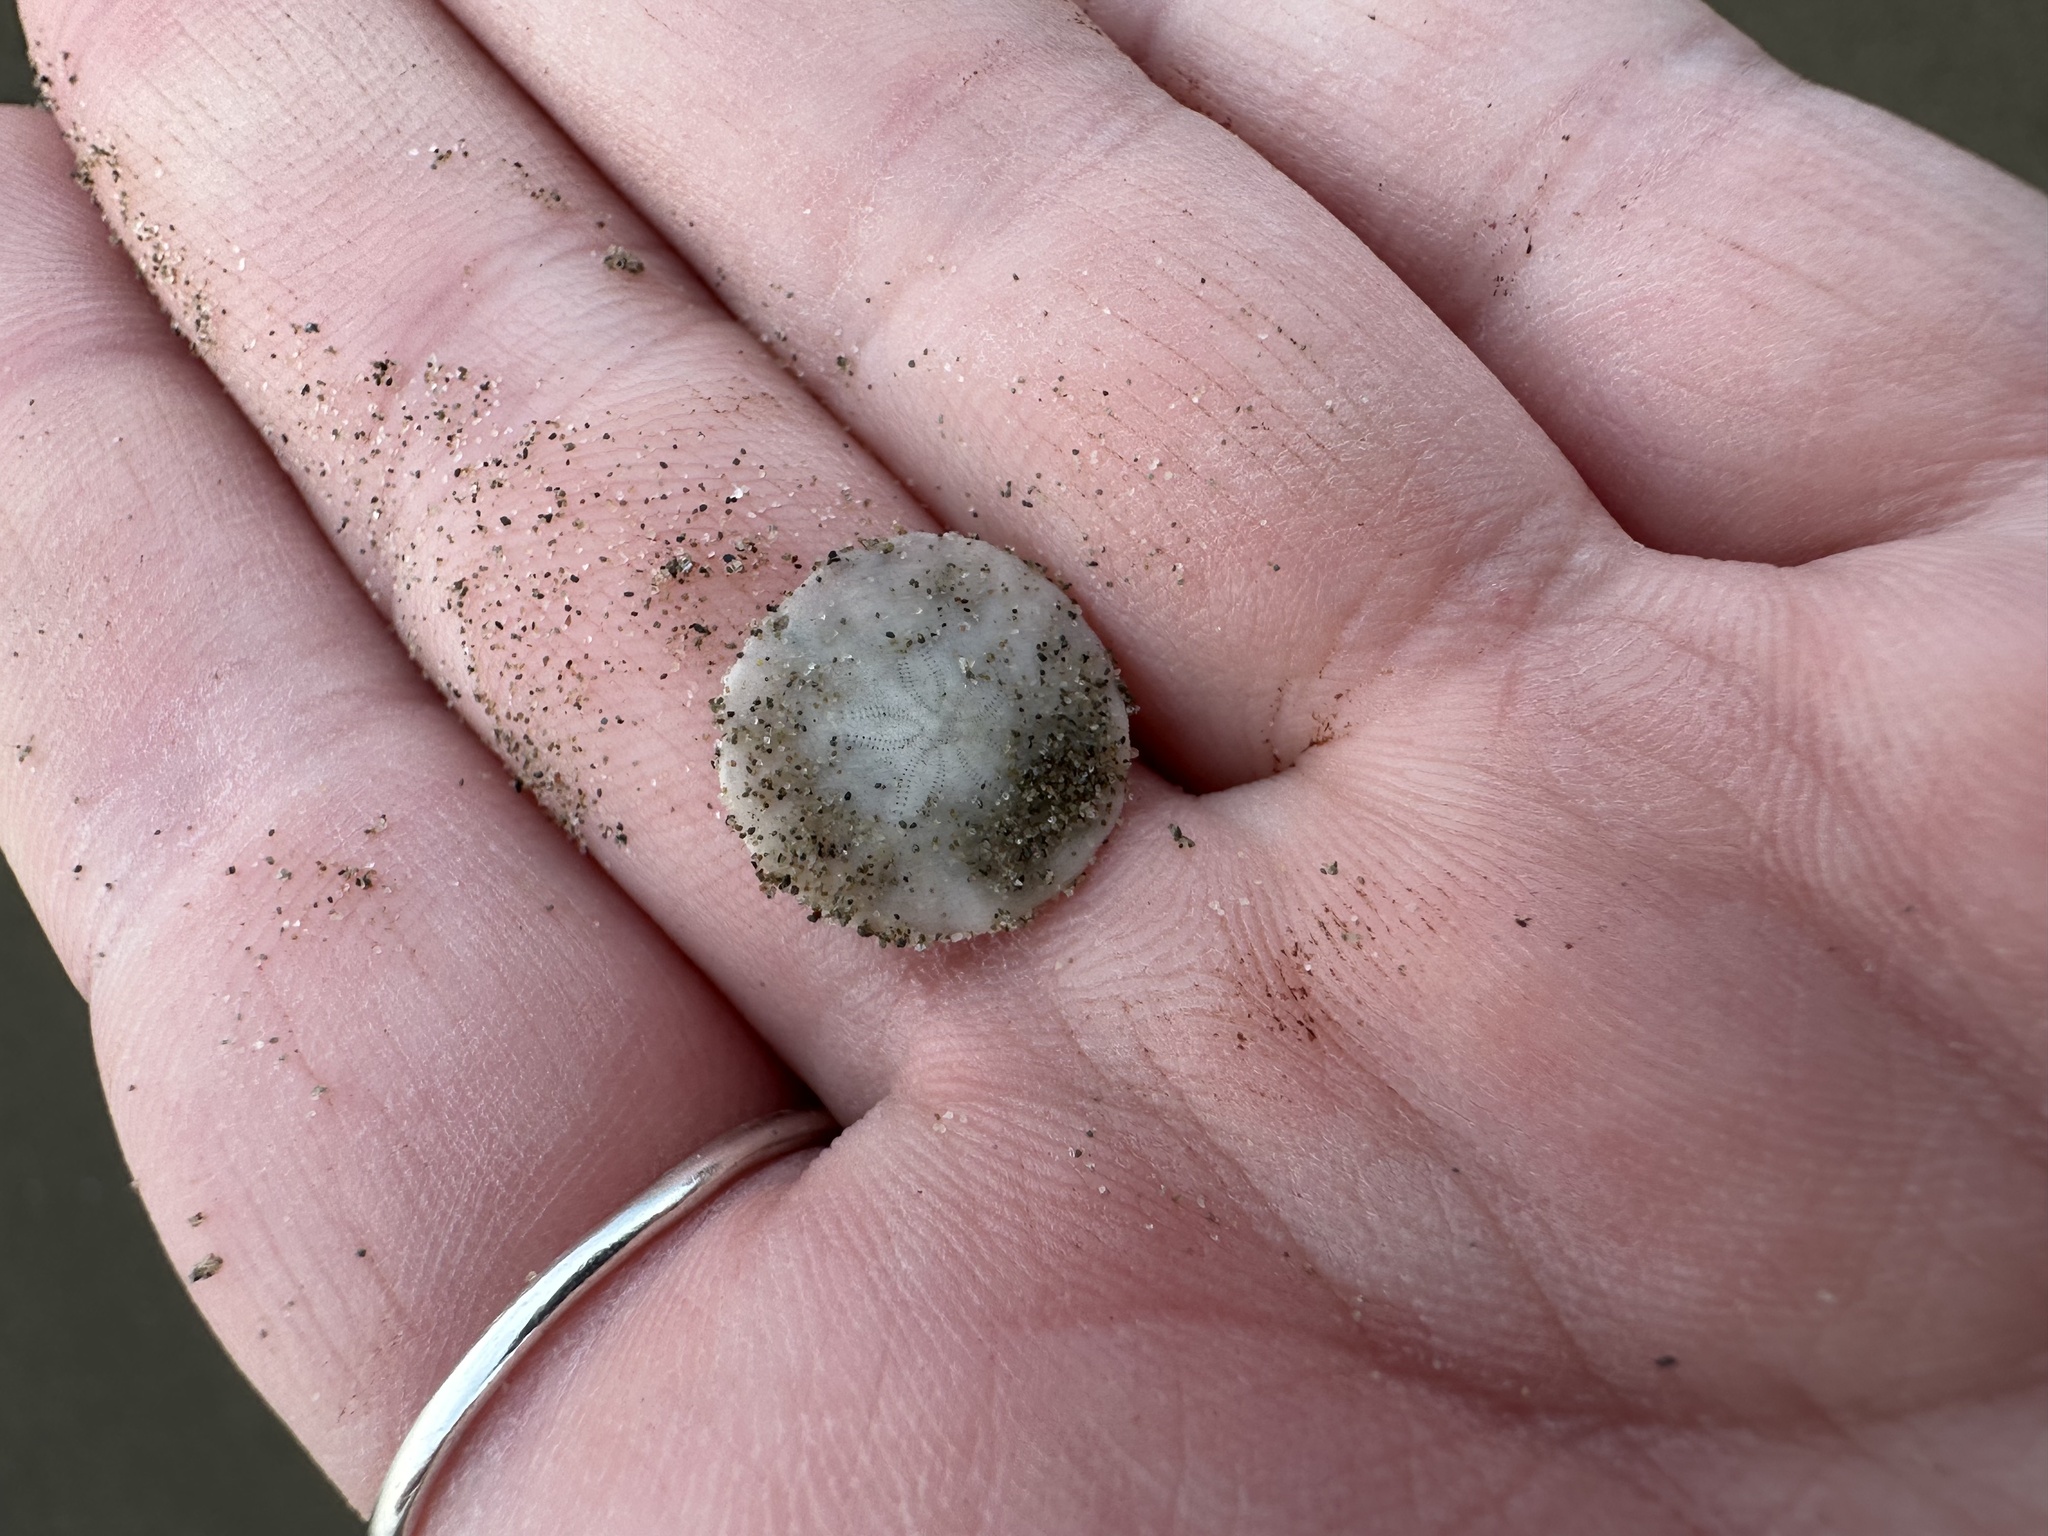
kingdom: Animalia
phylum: Echinodermata
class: Echinoidea
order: Echinolampadacea
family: Echinarachniidae
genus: Echinarachnius
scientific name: Echinarachnius parma
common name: Common sand dollar
